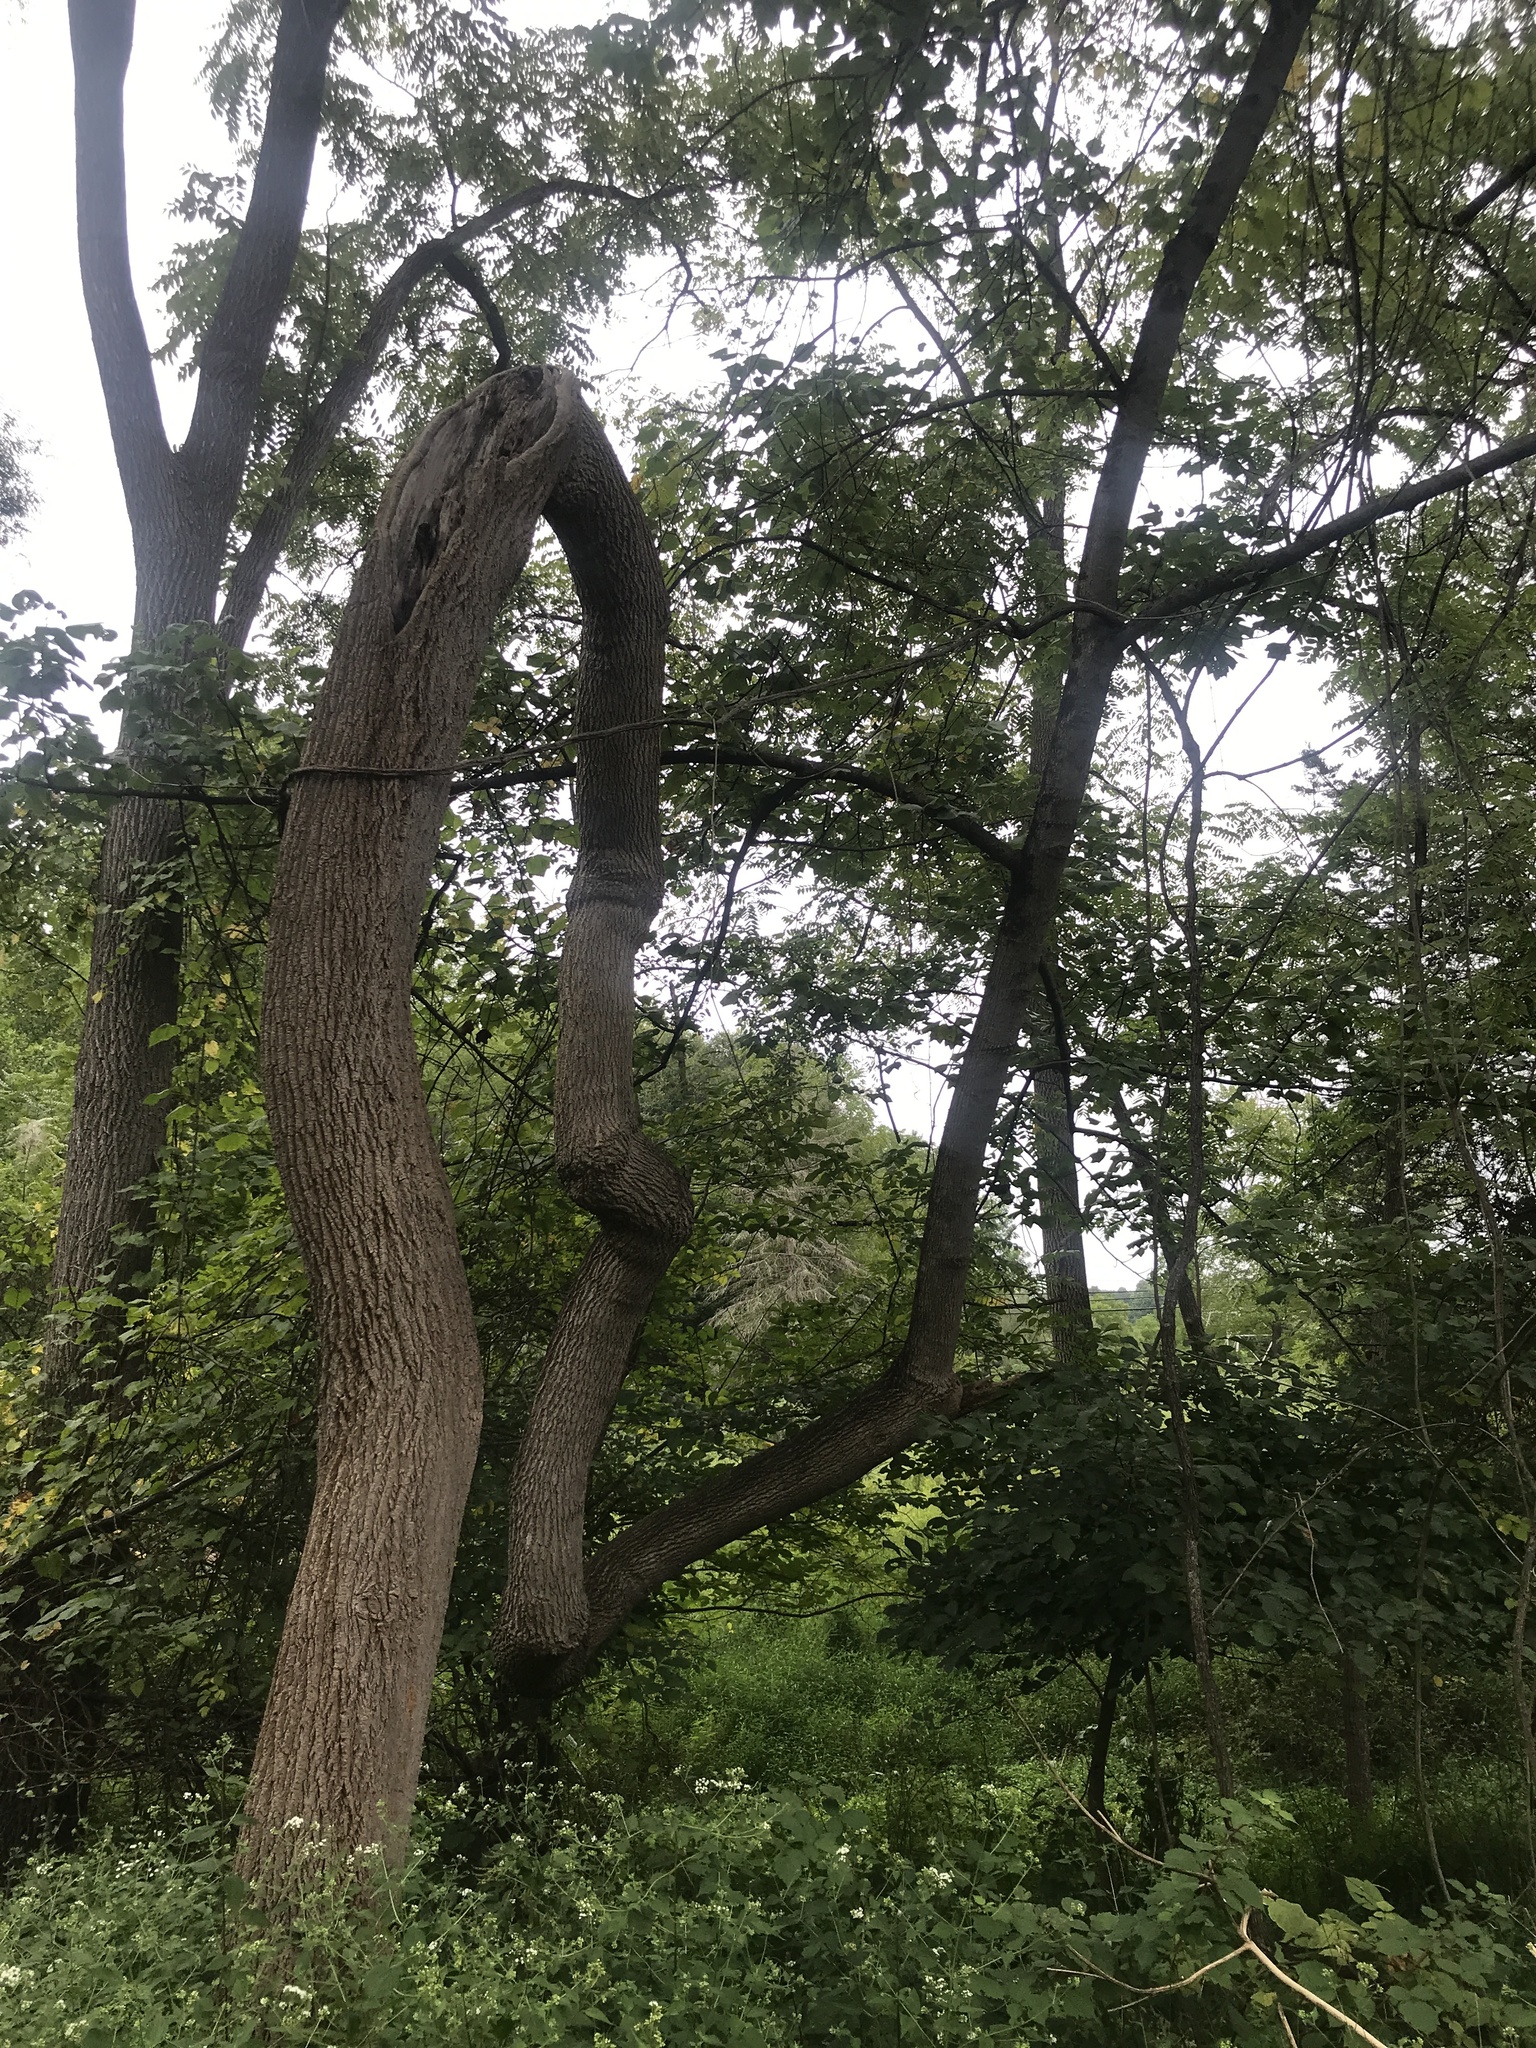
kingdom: Plantae
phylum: Tracheophyta
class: Magnoliopsida
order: Magnoliales
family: Magnoliaceae
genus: Liriodendron
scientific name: Liriodendron tulipifera
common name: Tulip tree
